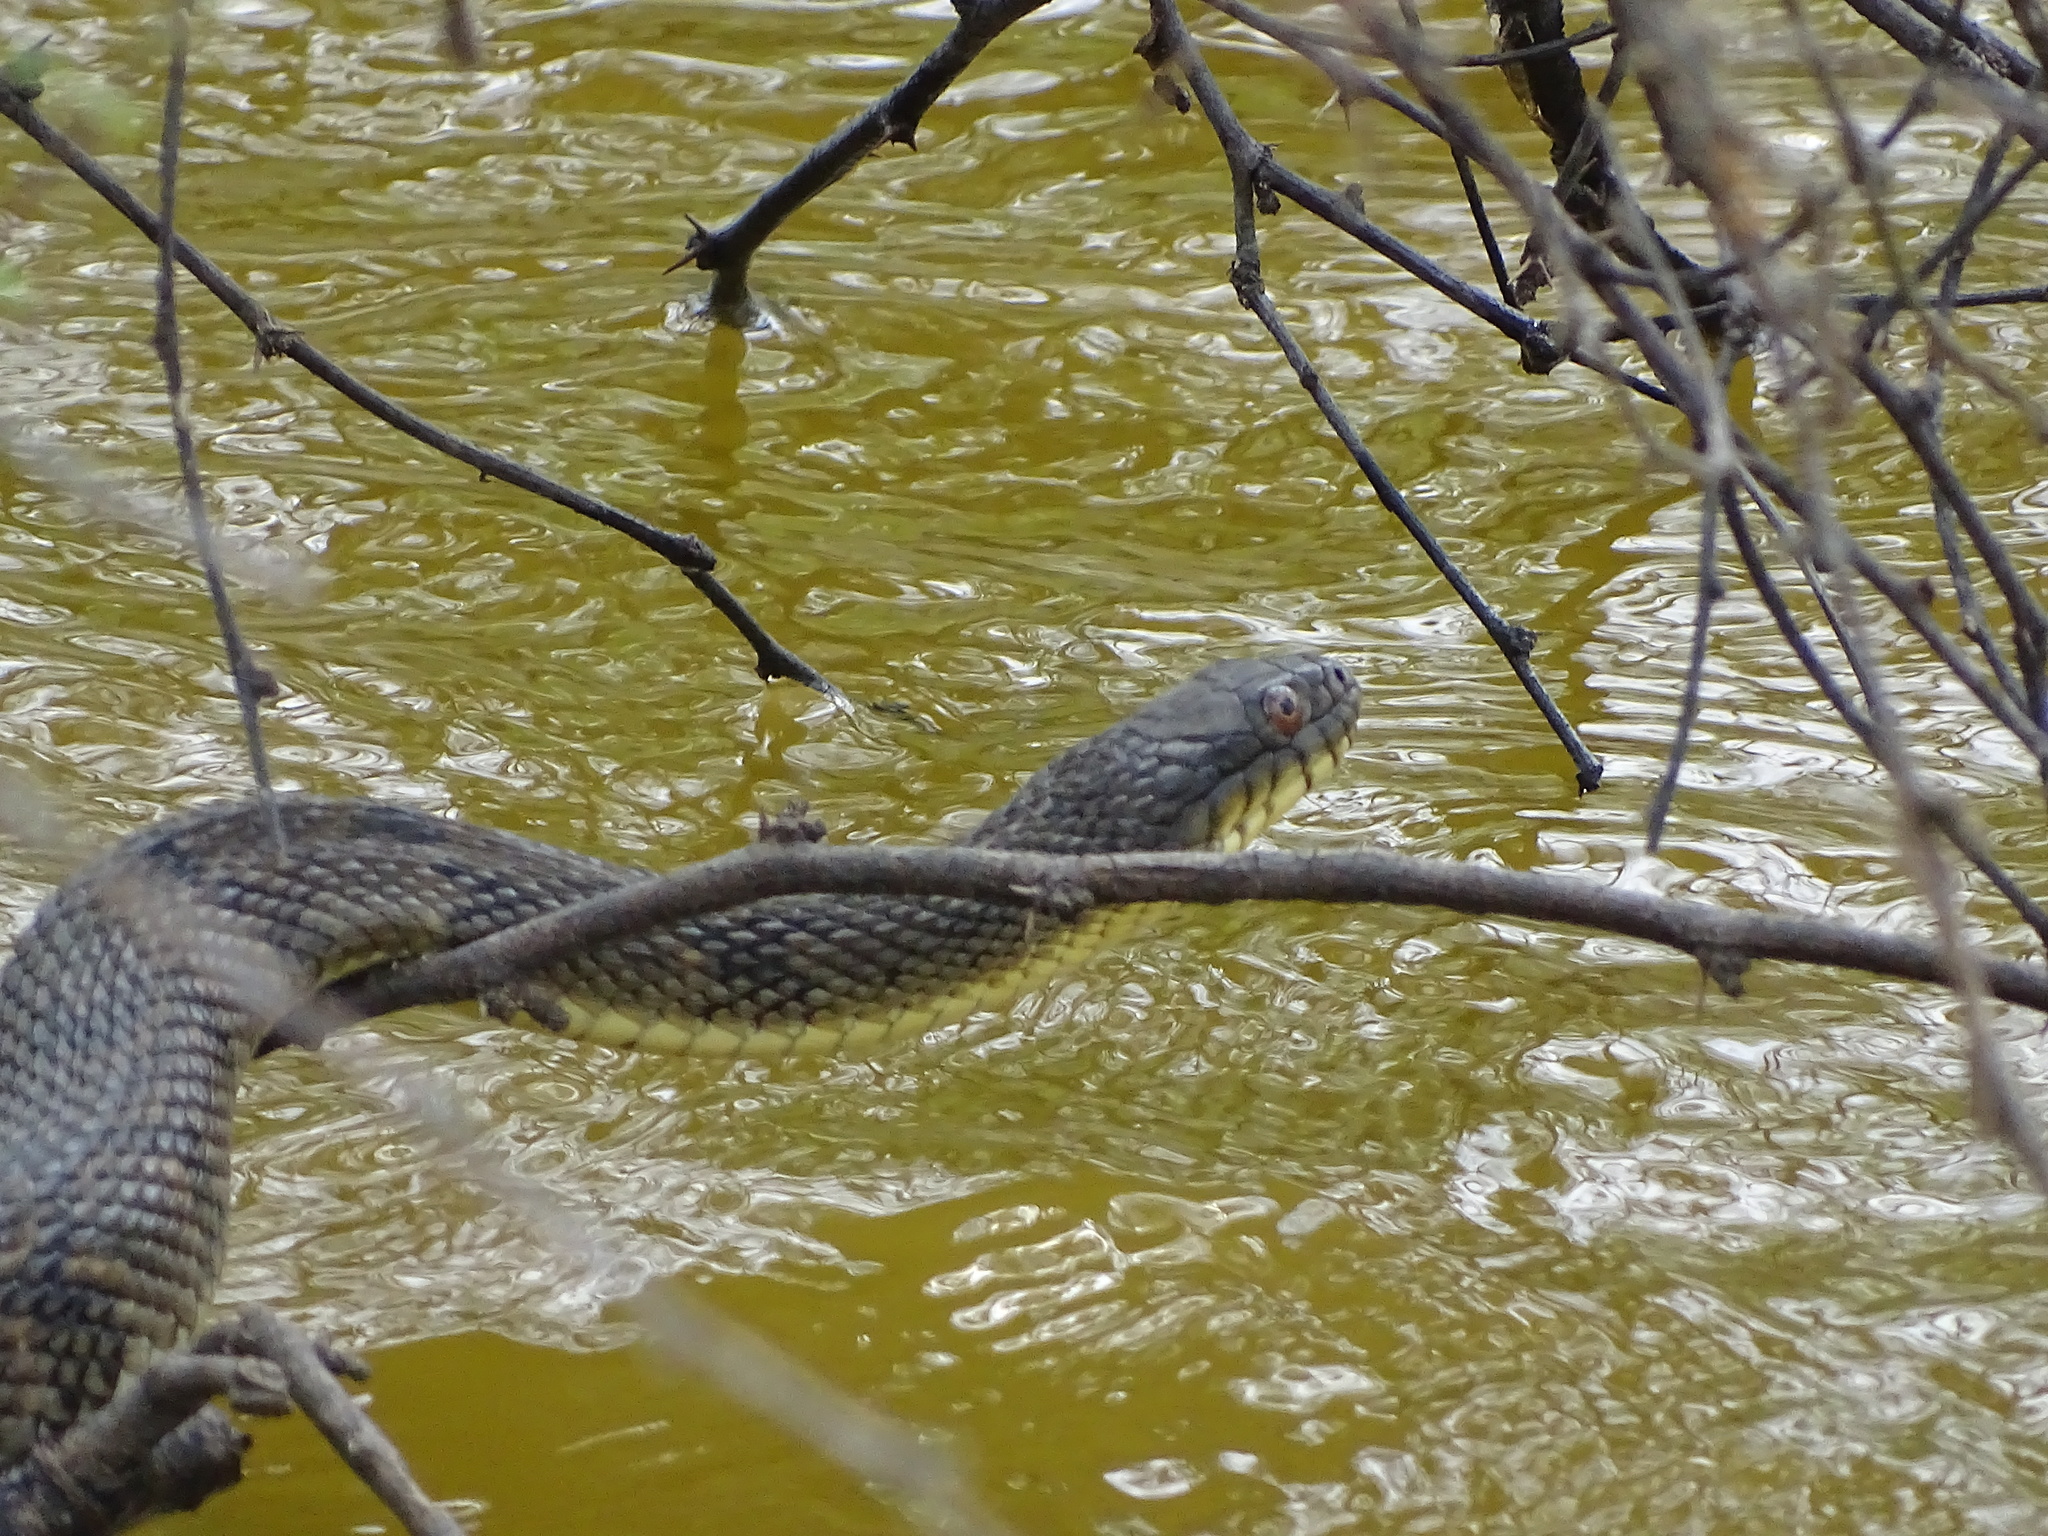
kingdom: Animalia
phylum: Chordata
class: Squamata
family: Colubridae
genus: Nerodia
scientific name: Nerodia rhombifer
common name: Diamondback water snake
